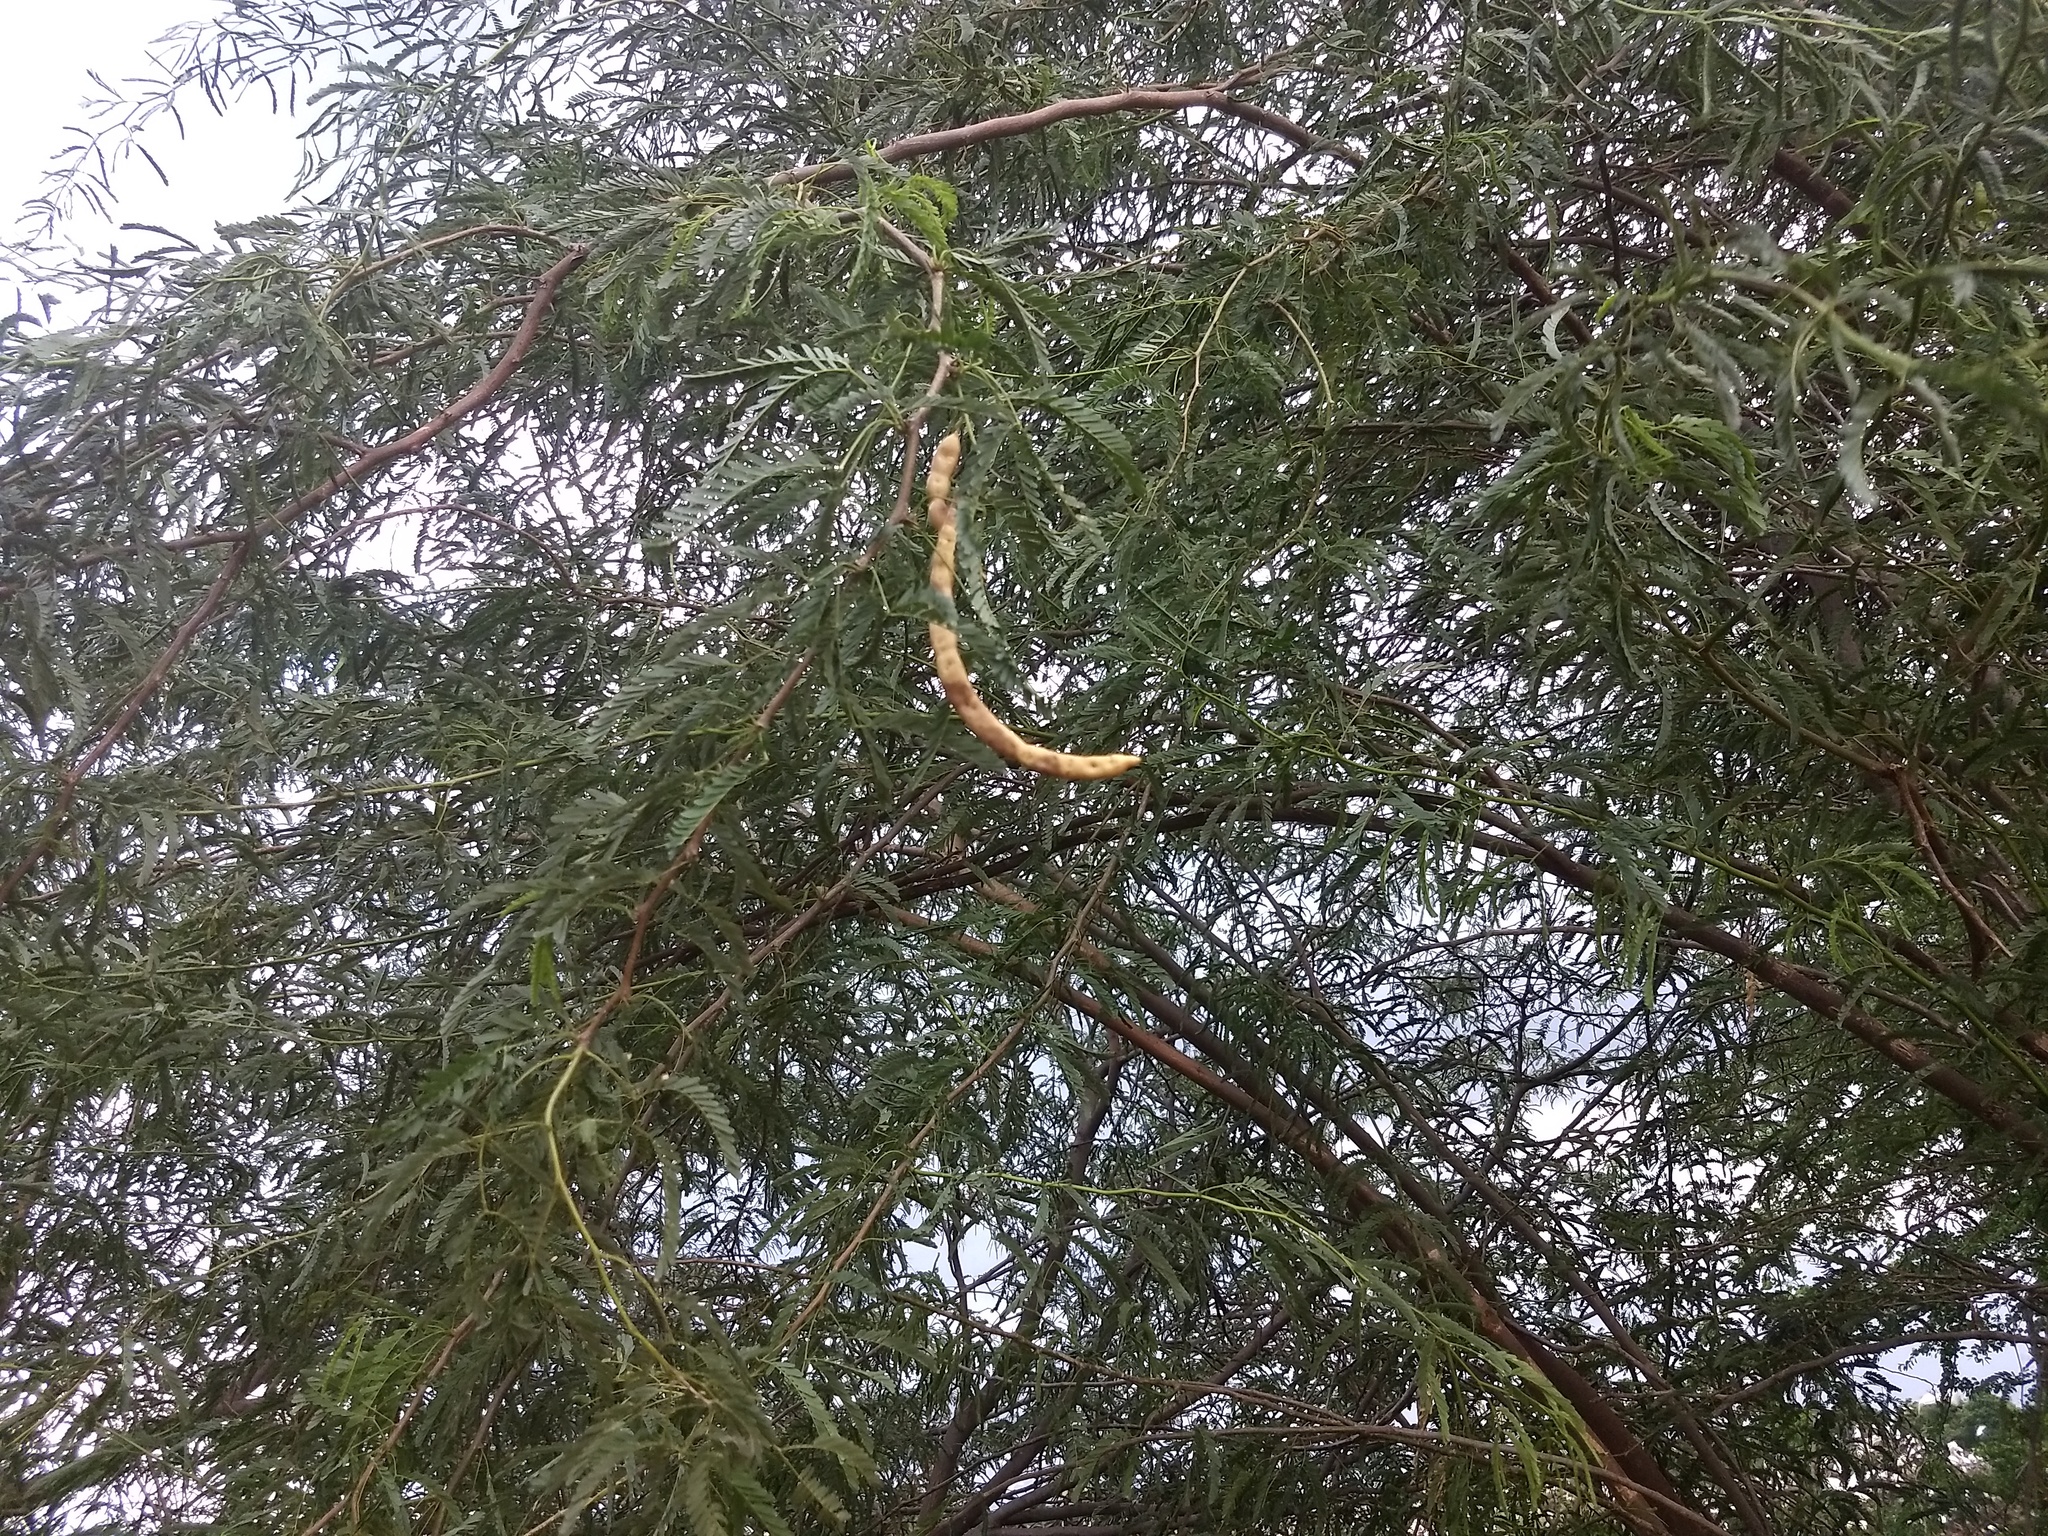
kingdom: Plantae
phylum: Tracheophyta
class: Magnoliopsida
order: Fabales
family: Fabaceae
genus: Prosopis
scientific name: Prosopis juliflora
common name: Mesquite
